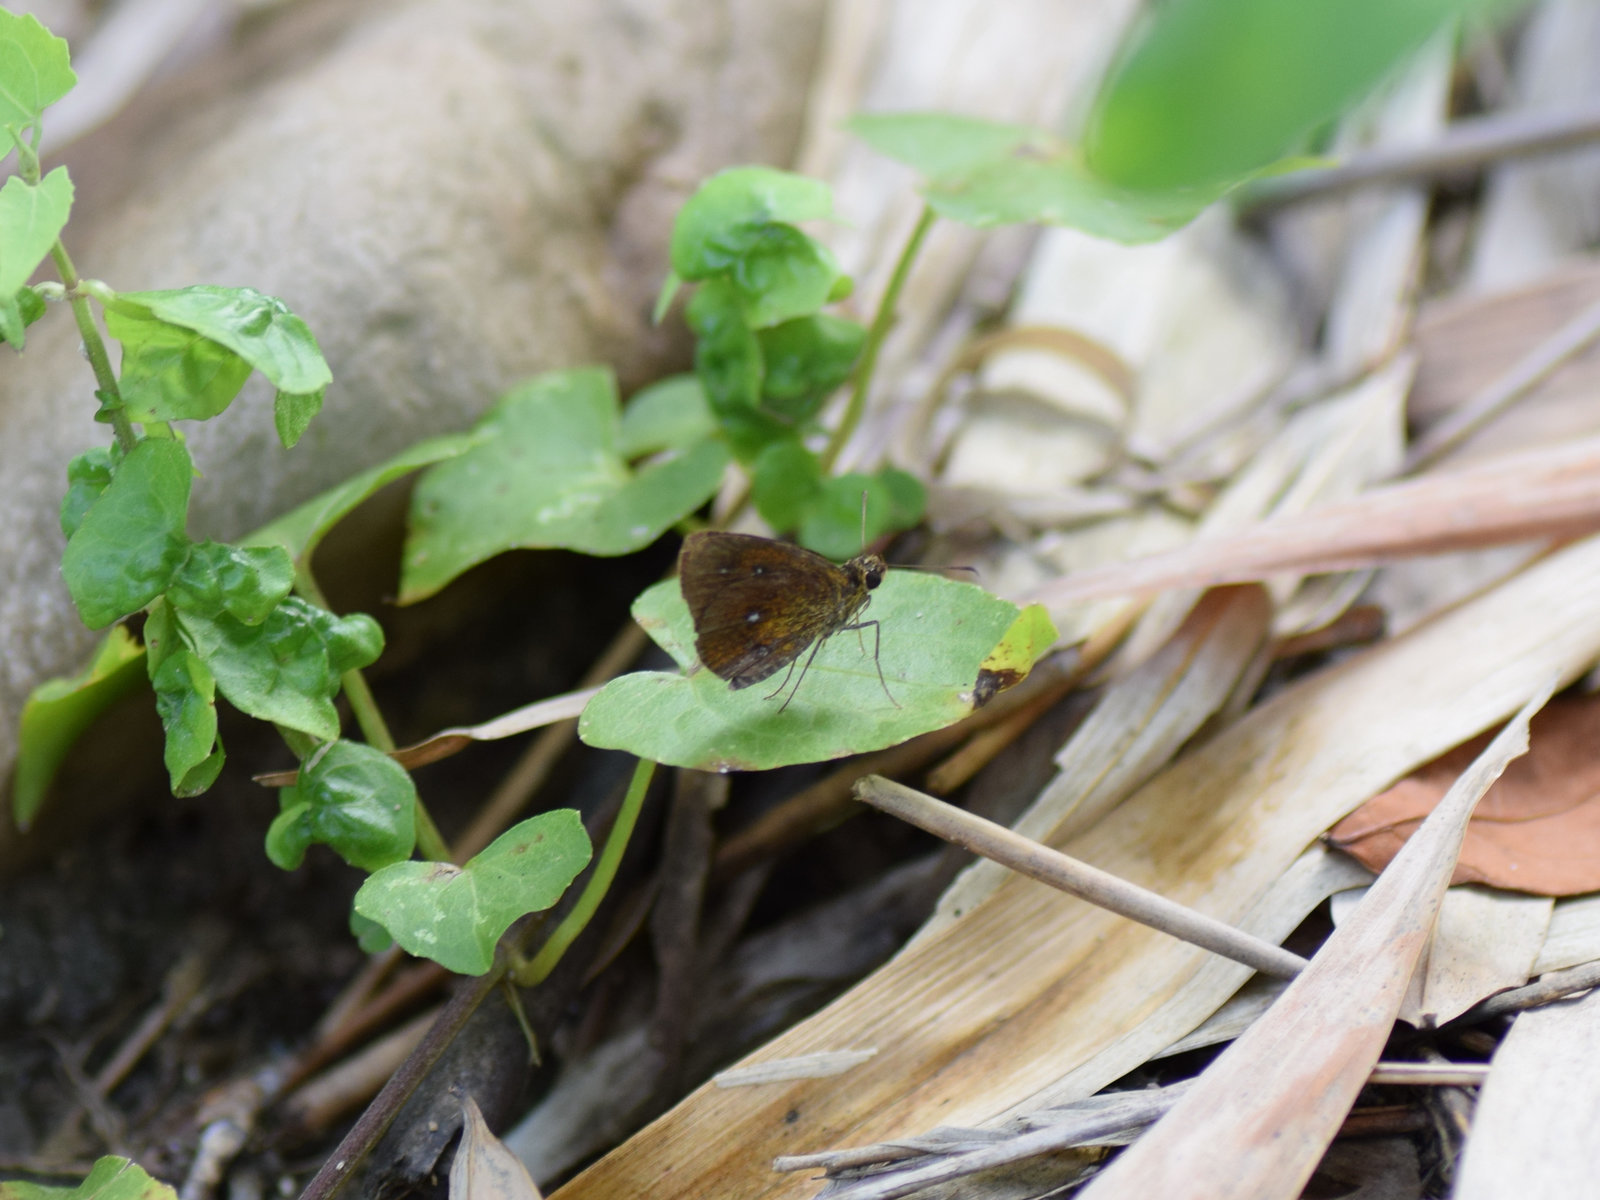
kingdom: Animalia
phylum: Arthropoda
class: Insecta
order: Lepidoptera
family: Hesperiidae
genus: Iambrix
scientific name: Iambrix salsala
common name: Chestnut bob
